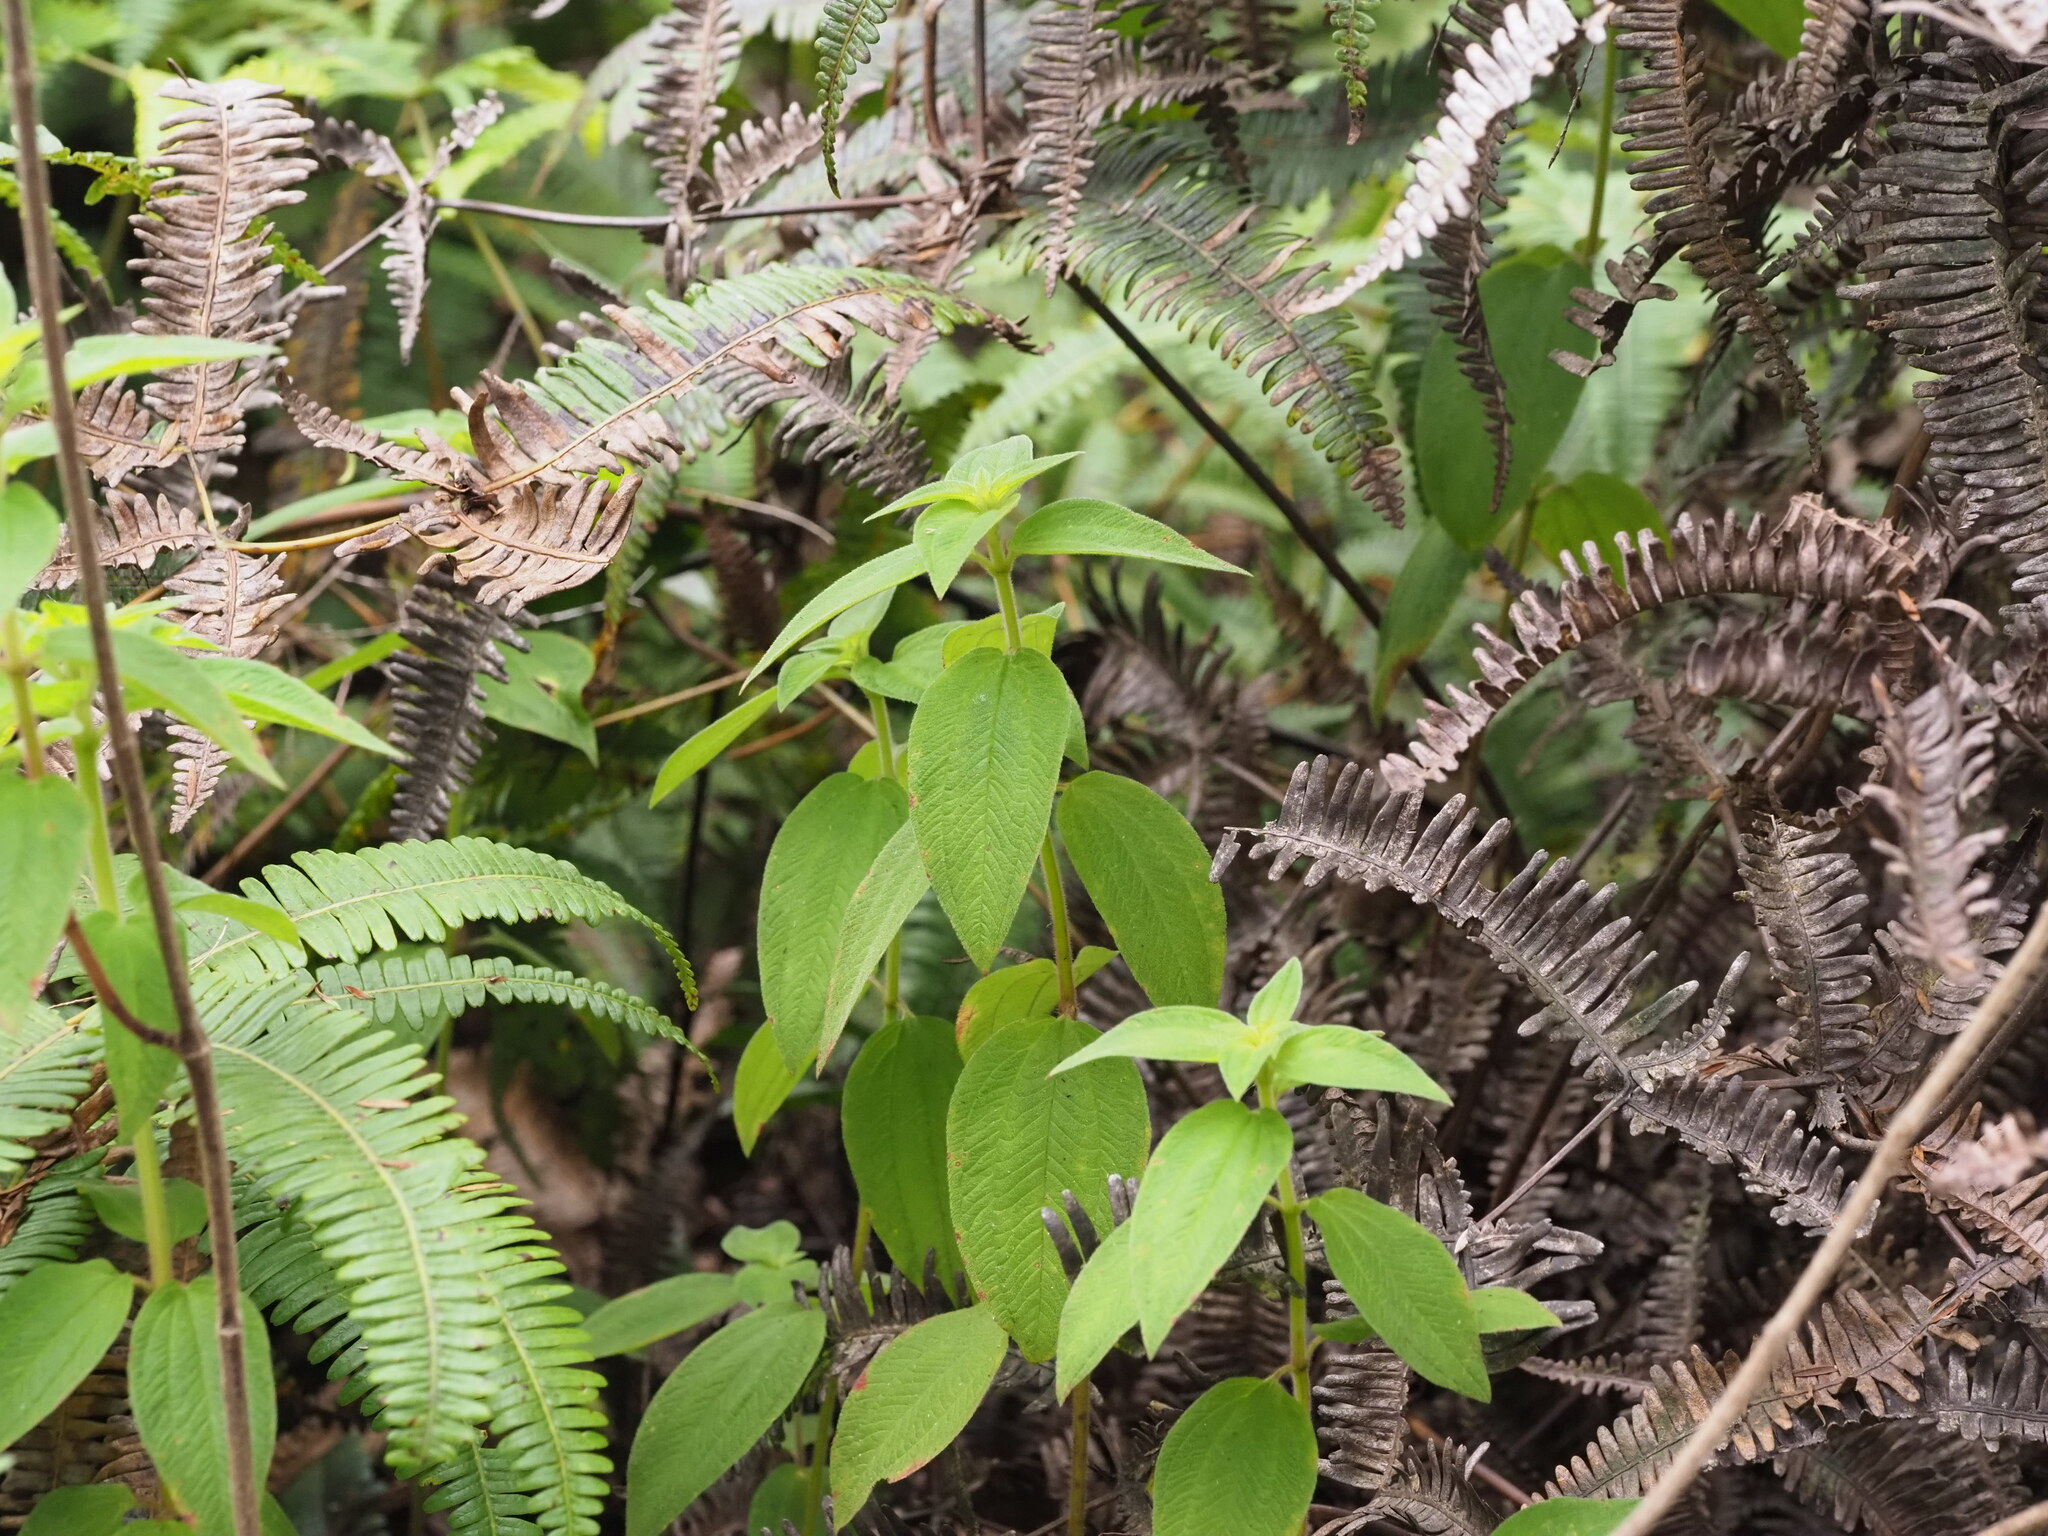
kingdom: Plantae
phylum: Tracheophyta
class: Magnoliopsida
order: Myrtales
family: Melastomataceae
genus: Chaetogastra
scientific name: Chaetogastra herbacea
